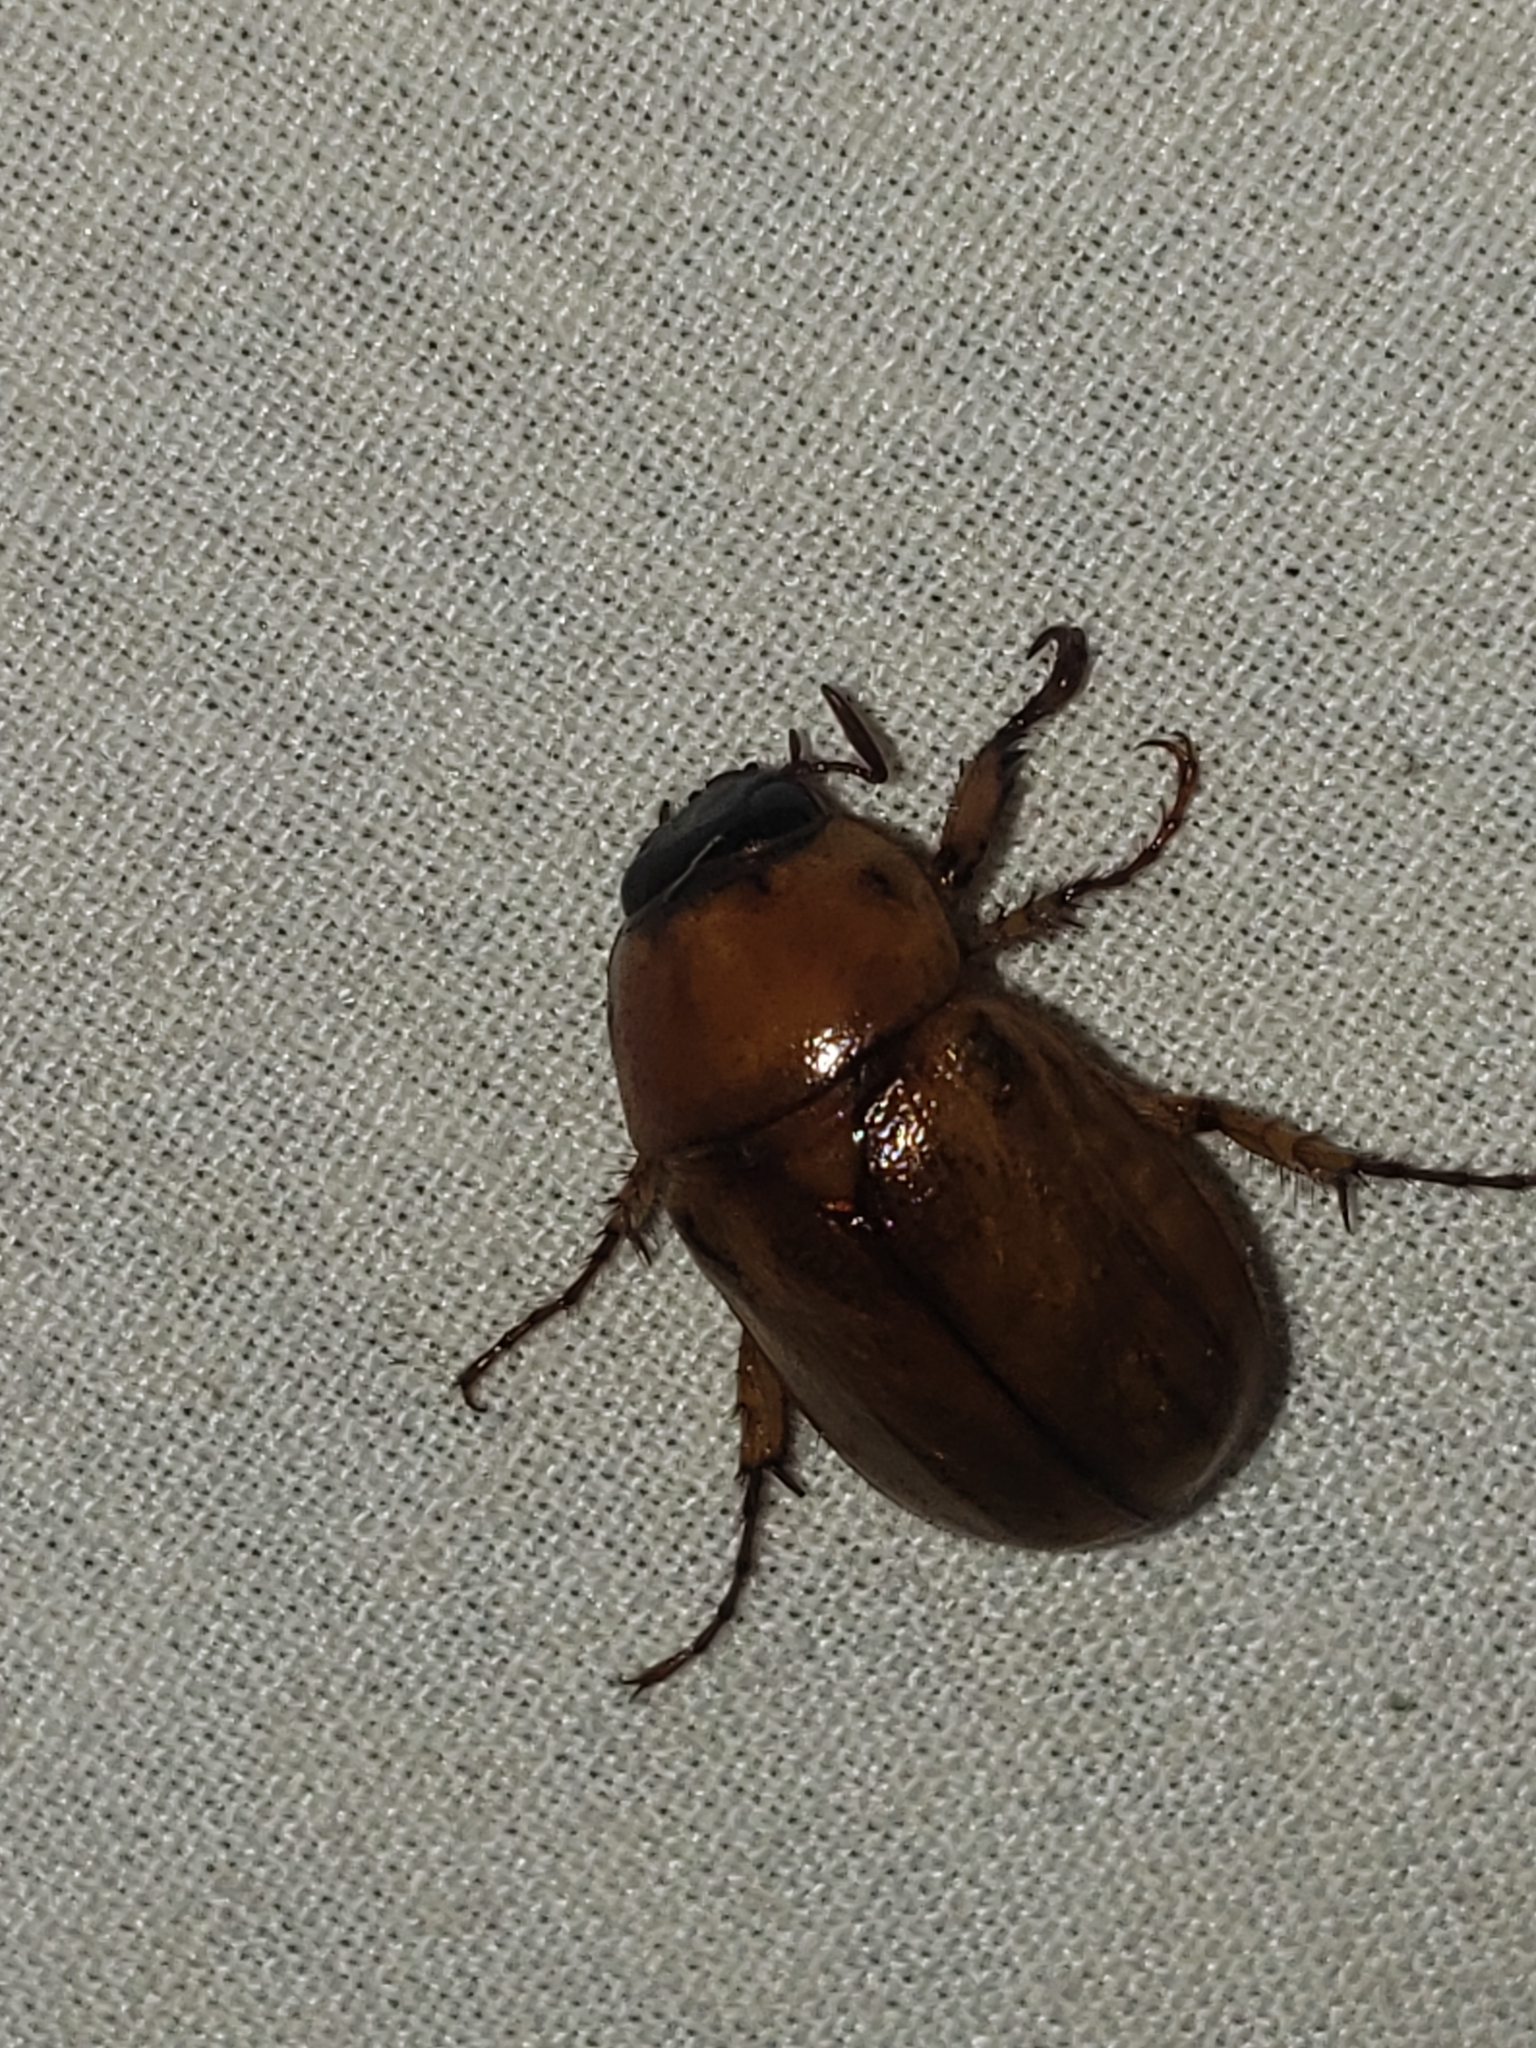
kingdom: Animalia
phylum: Arthropoda
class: Insecta
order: Coleoptera
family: Scarabaeidae
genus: Cyclocephala
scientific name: Cyclocephala lurida
